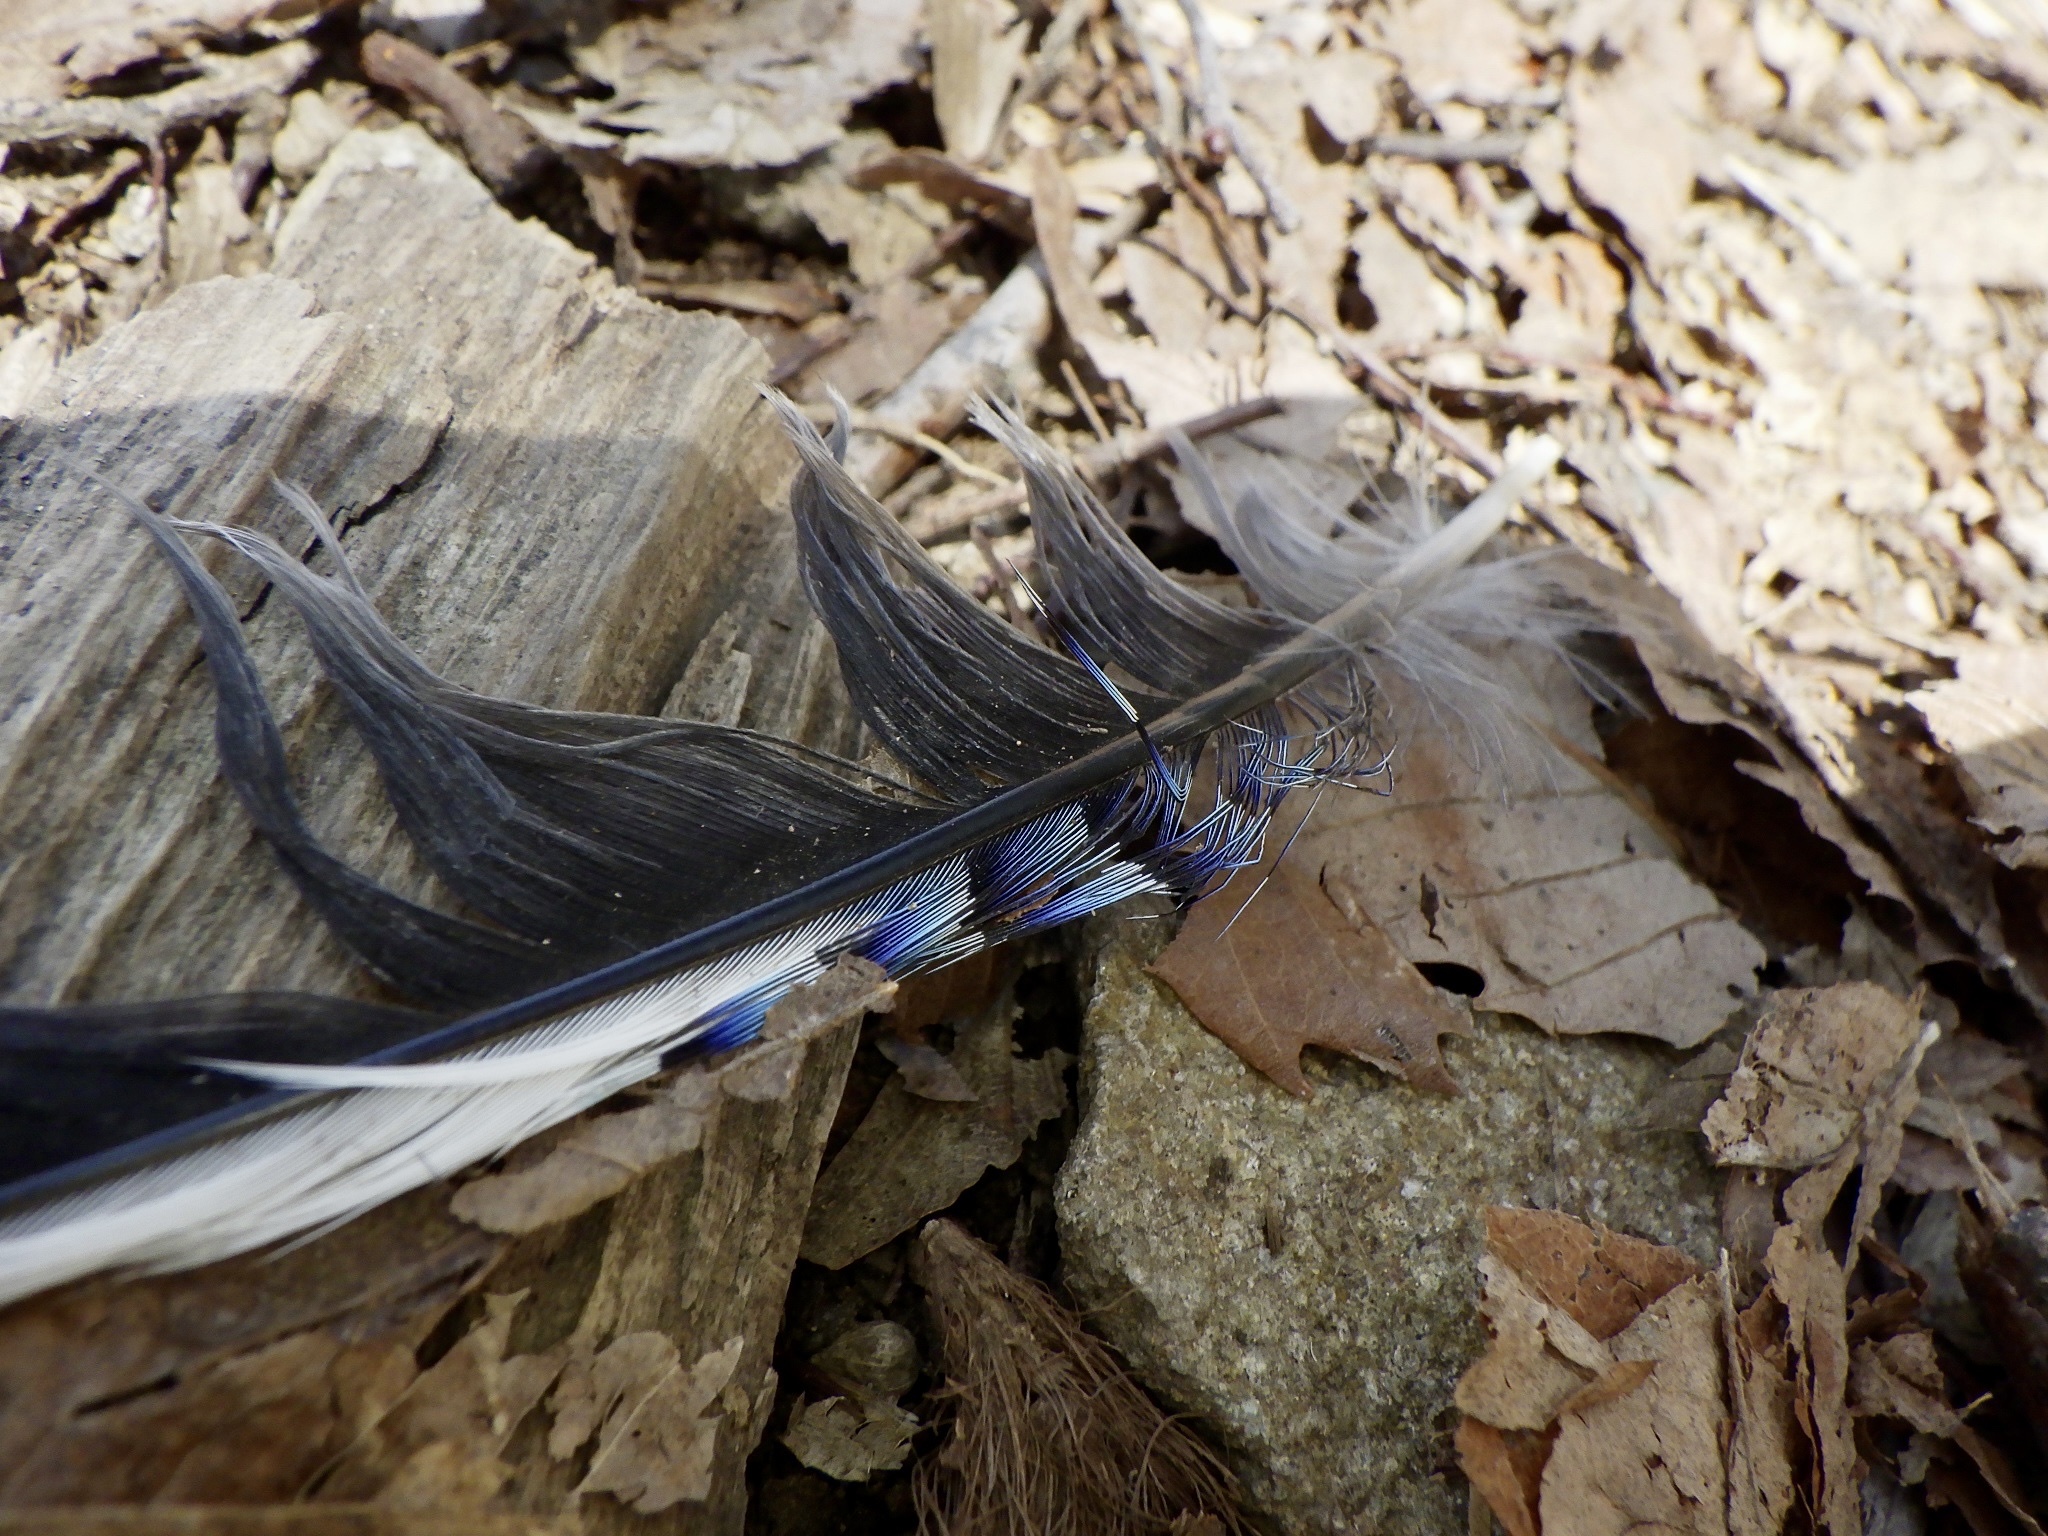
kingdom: Animalia
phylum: Chordata
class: Aves
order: Passeriformes
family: Corvidae
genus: Garrulus
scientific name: Garrulus glandarius
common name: Eurasian jay
